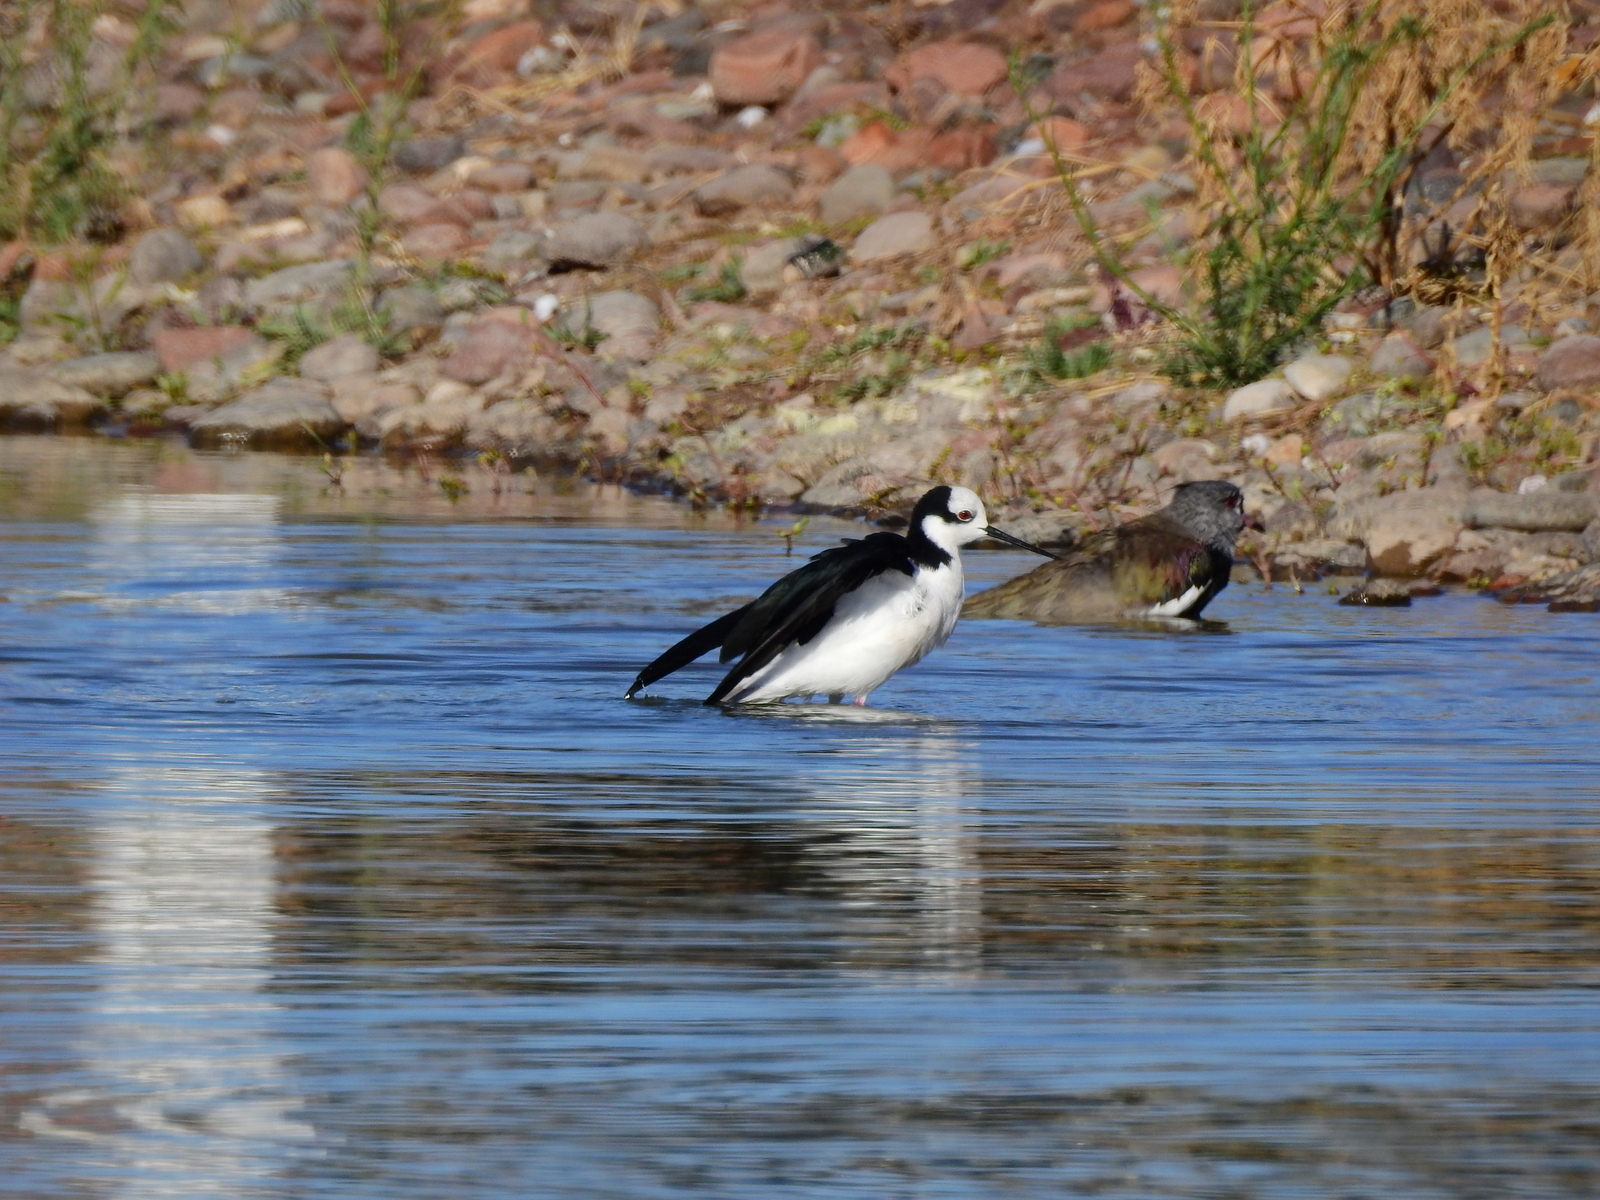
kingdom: Animalia
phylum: Chordata
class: Aves
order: Charadriiformes
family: Recurvirostridae
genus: Himantopus
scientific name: Himantopus mexicanus
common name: Black-necked stilt
